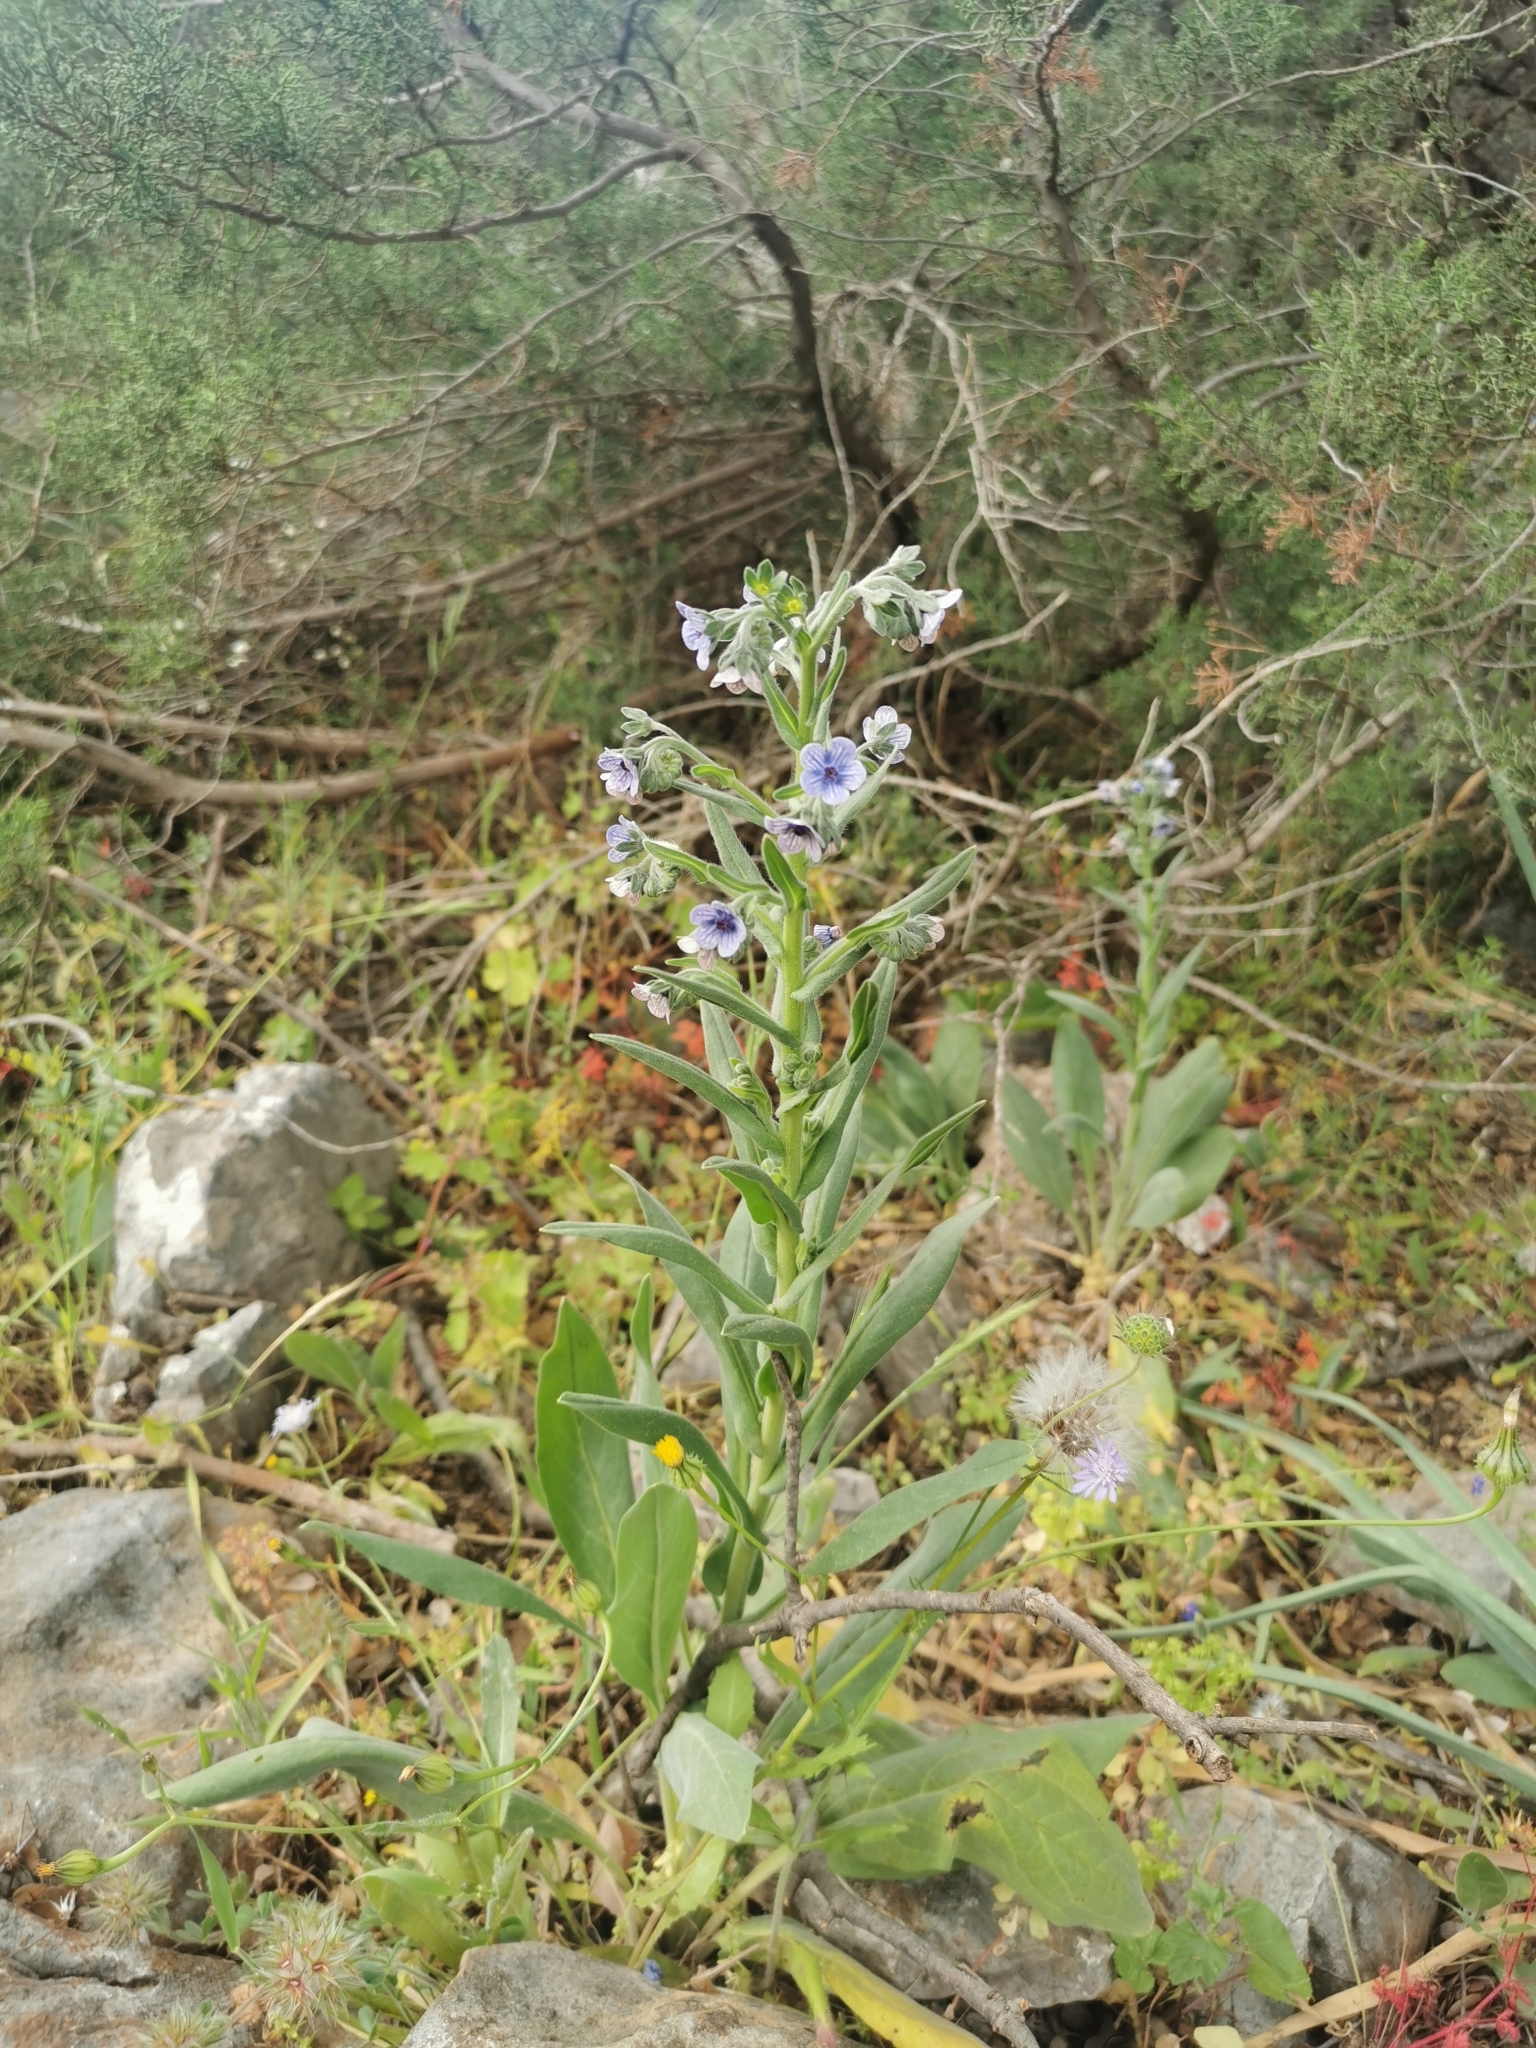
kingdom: Plantae
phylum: Tracheophyta
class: Magnoliopsida
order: Boraginales
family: Boraginaceae
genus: Cynoglossum
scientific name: Cynoglossum creticum
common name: Blue hound's tongue
